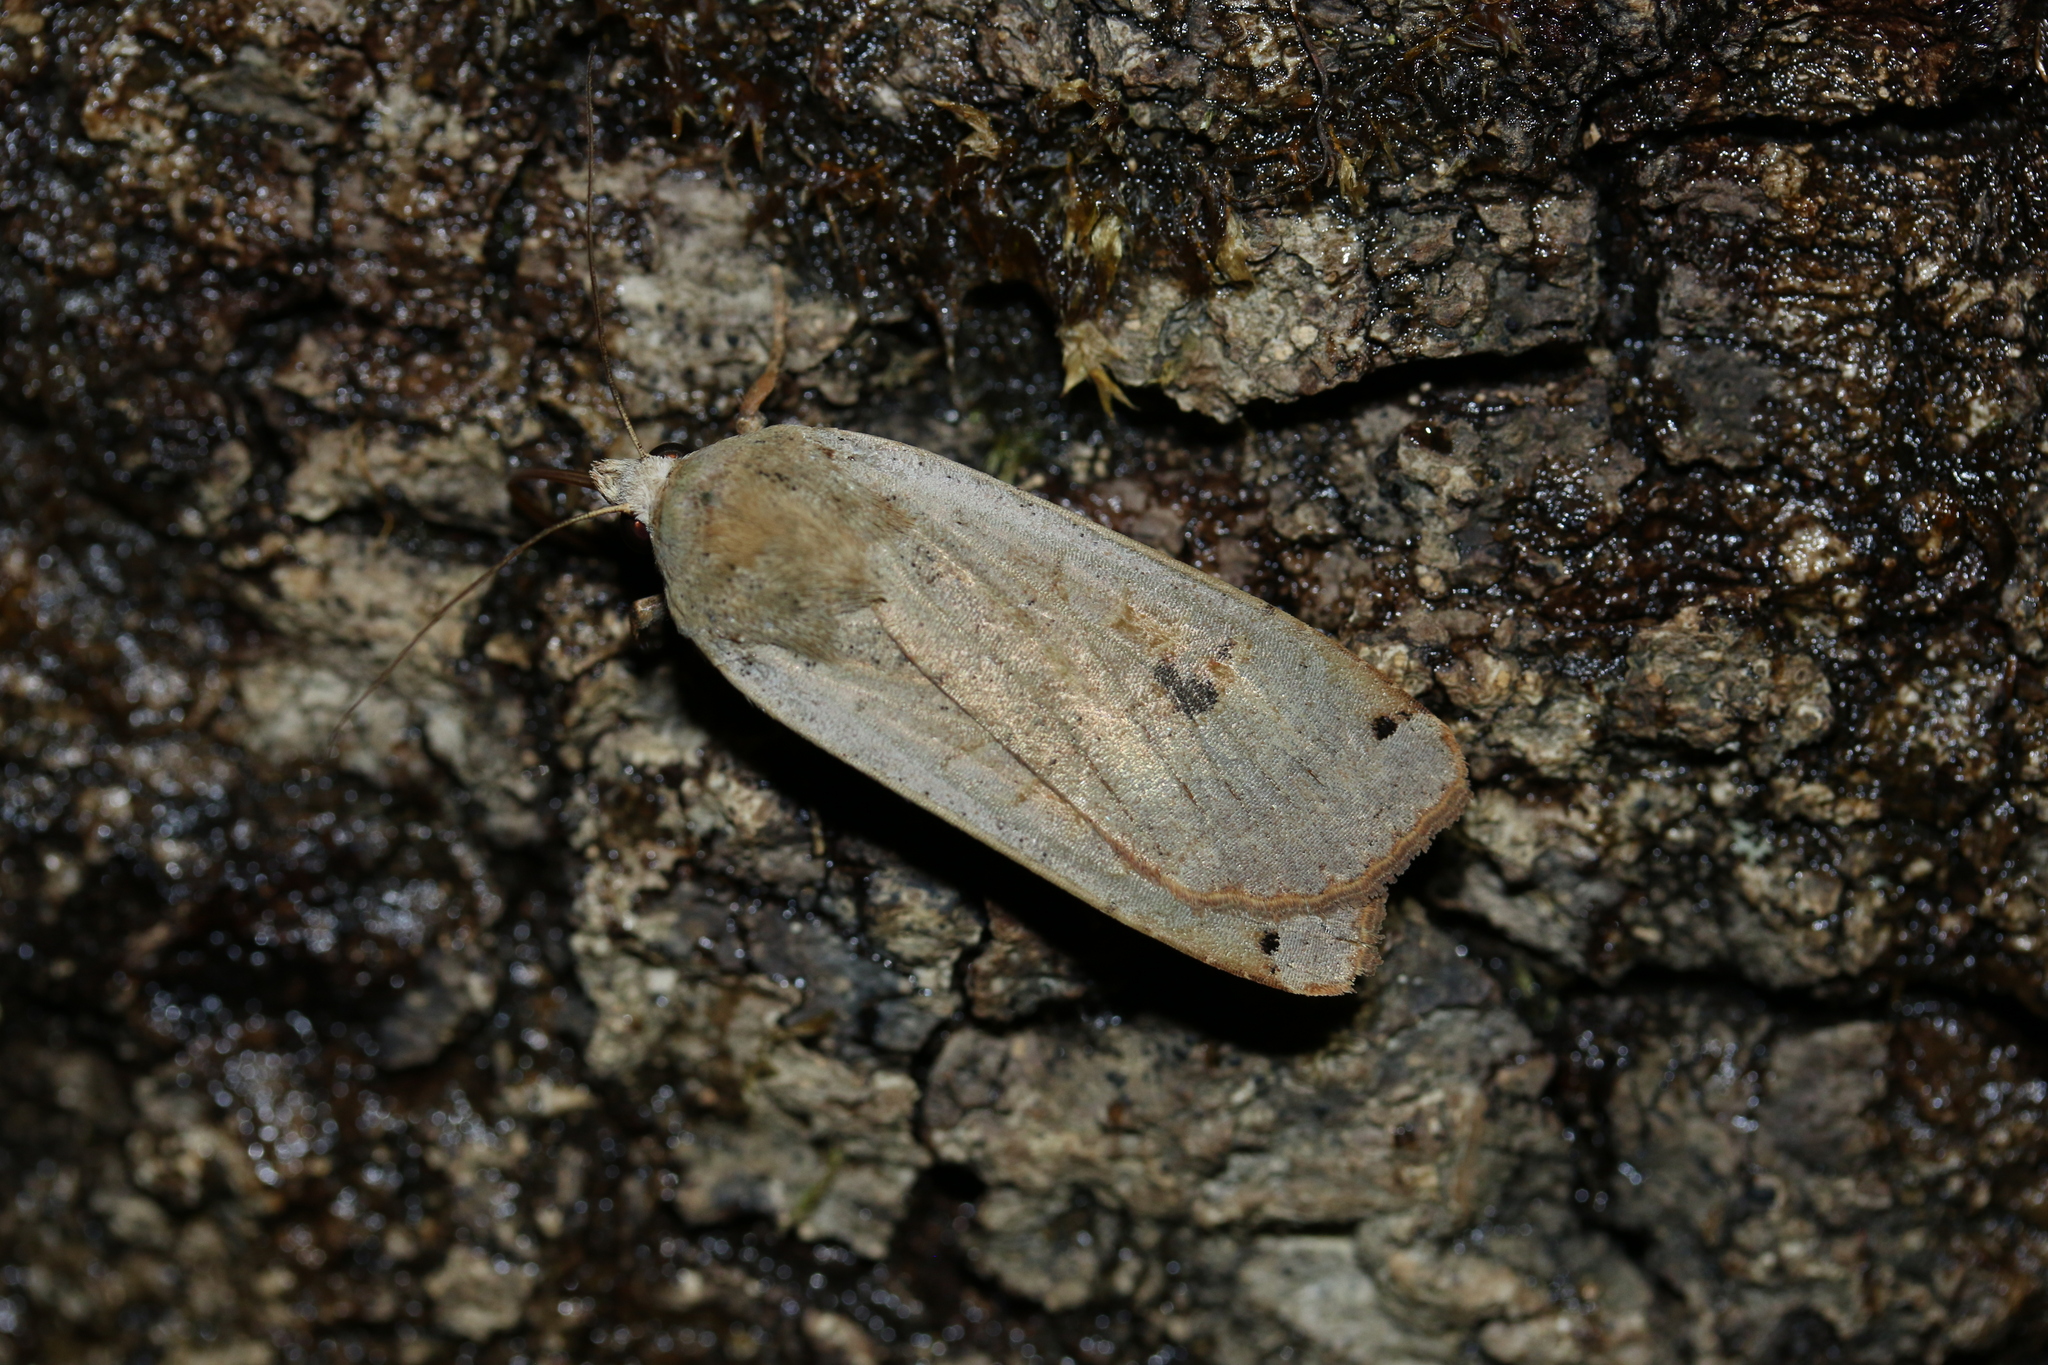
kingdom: Animalia
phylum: Arthropoda
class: Insecta
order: Lepidoptera
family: Noctuidae
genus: Noctua
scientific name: Noctua pronuba
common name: Large yellow underwing
